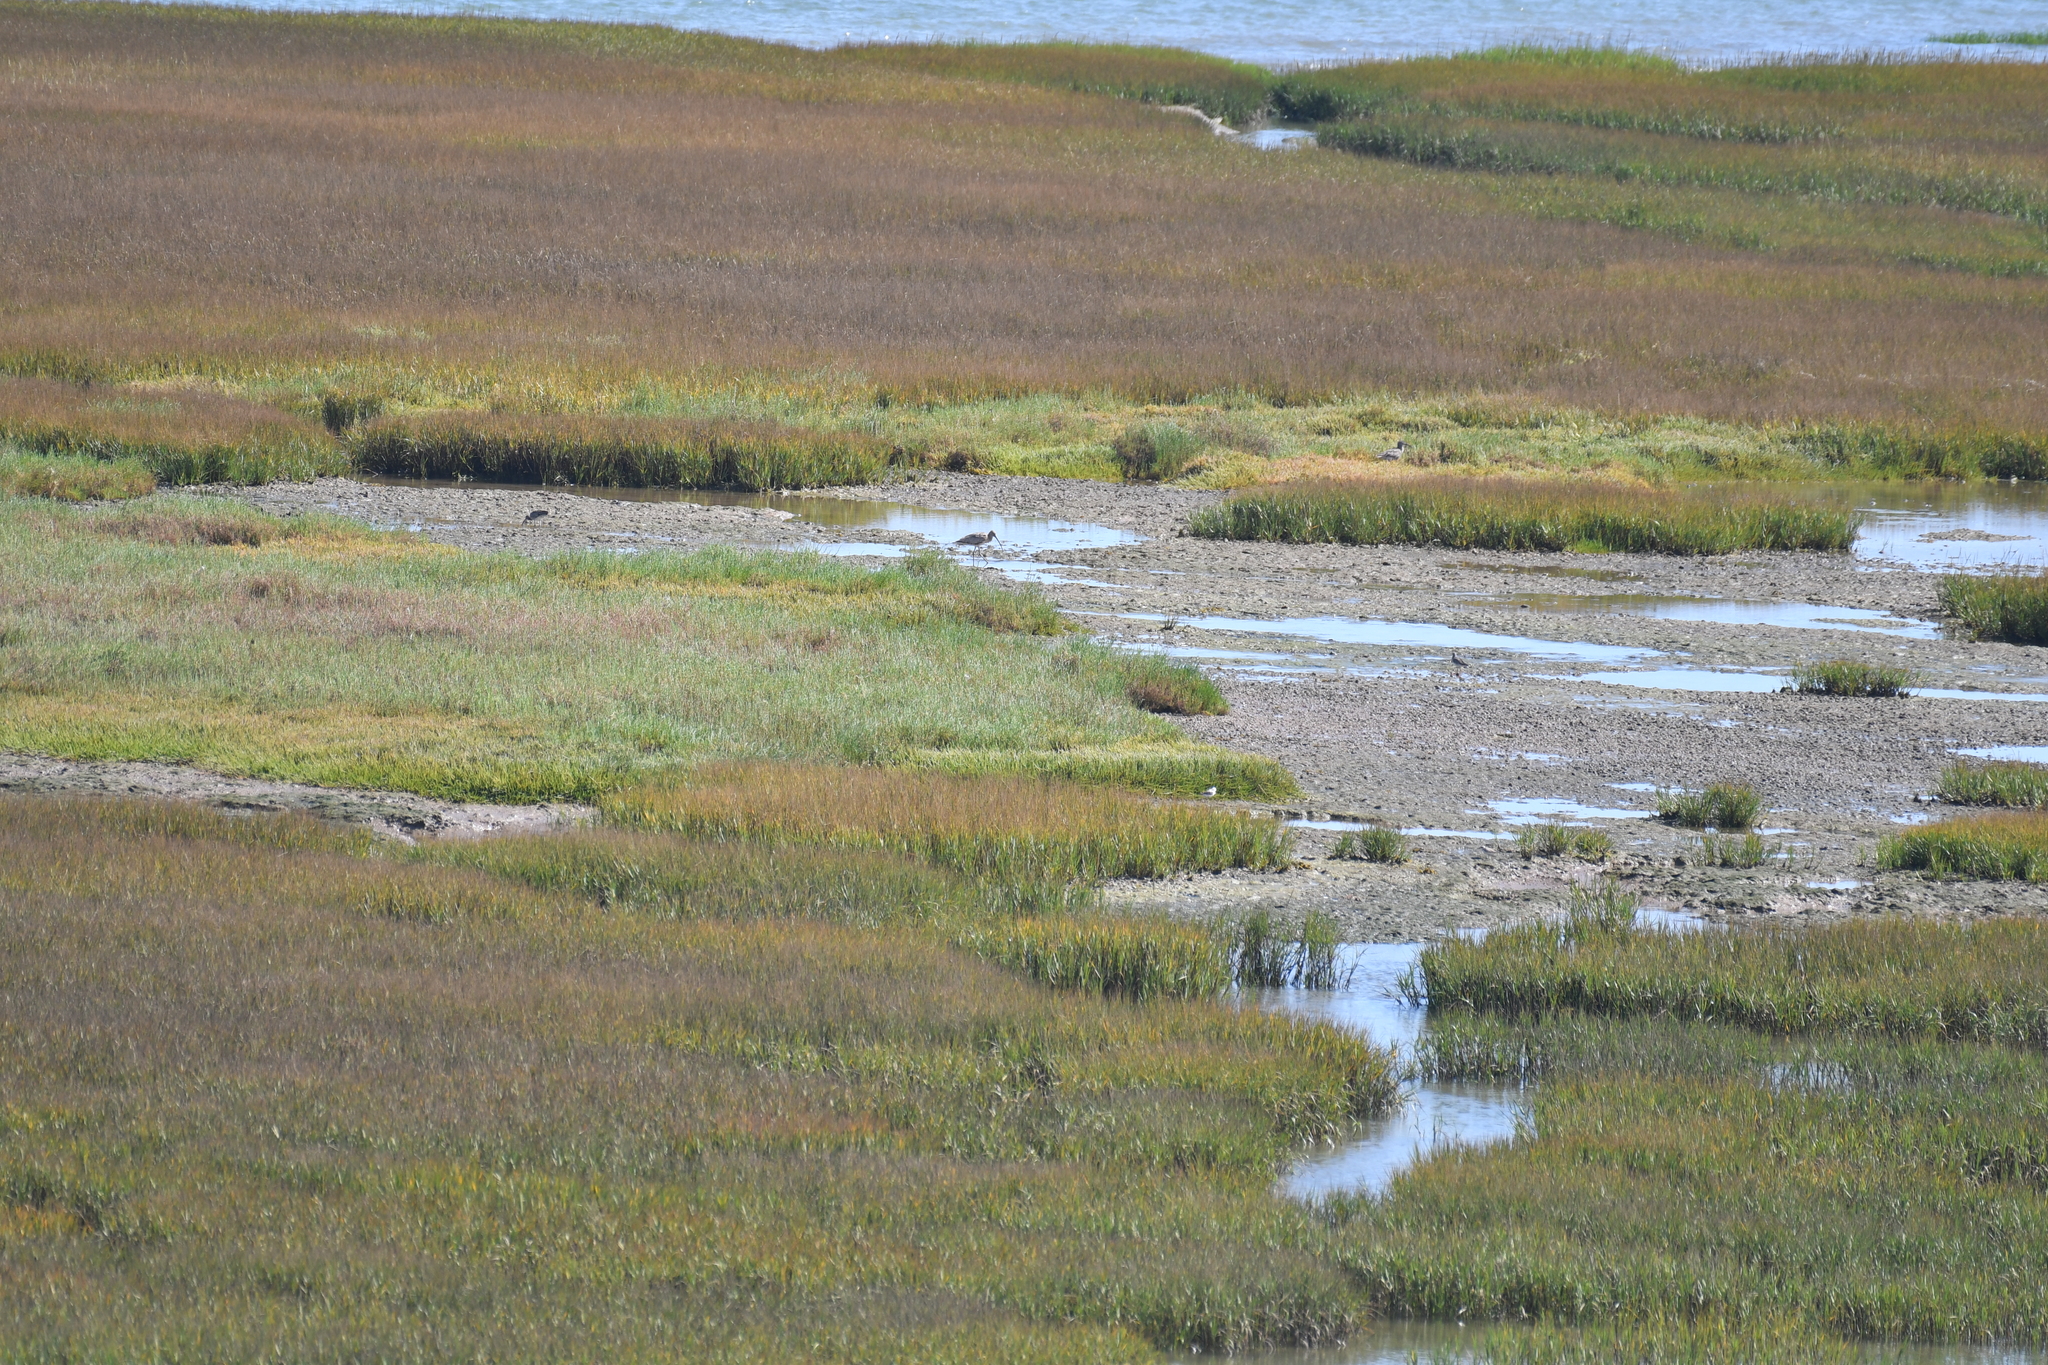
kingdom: Animalia
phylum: Chordata
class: Aves
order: Charadriiformes
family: Scolopacidae
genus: Numenius
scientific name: Numenius arquata
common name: Eurasian curlew
